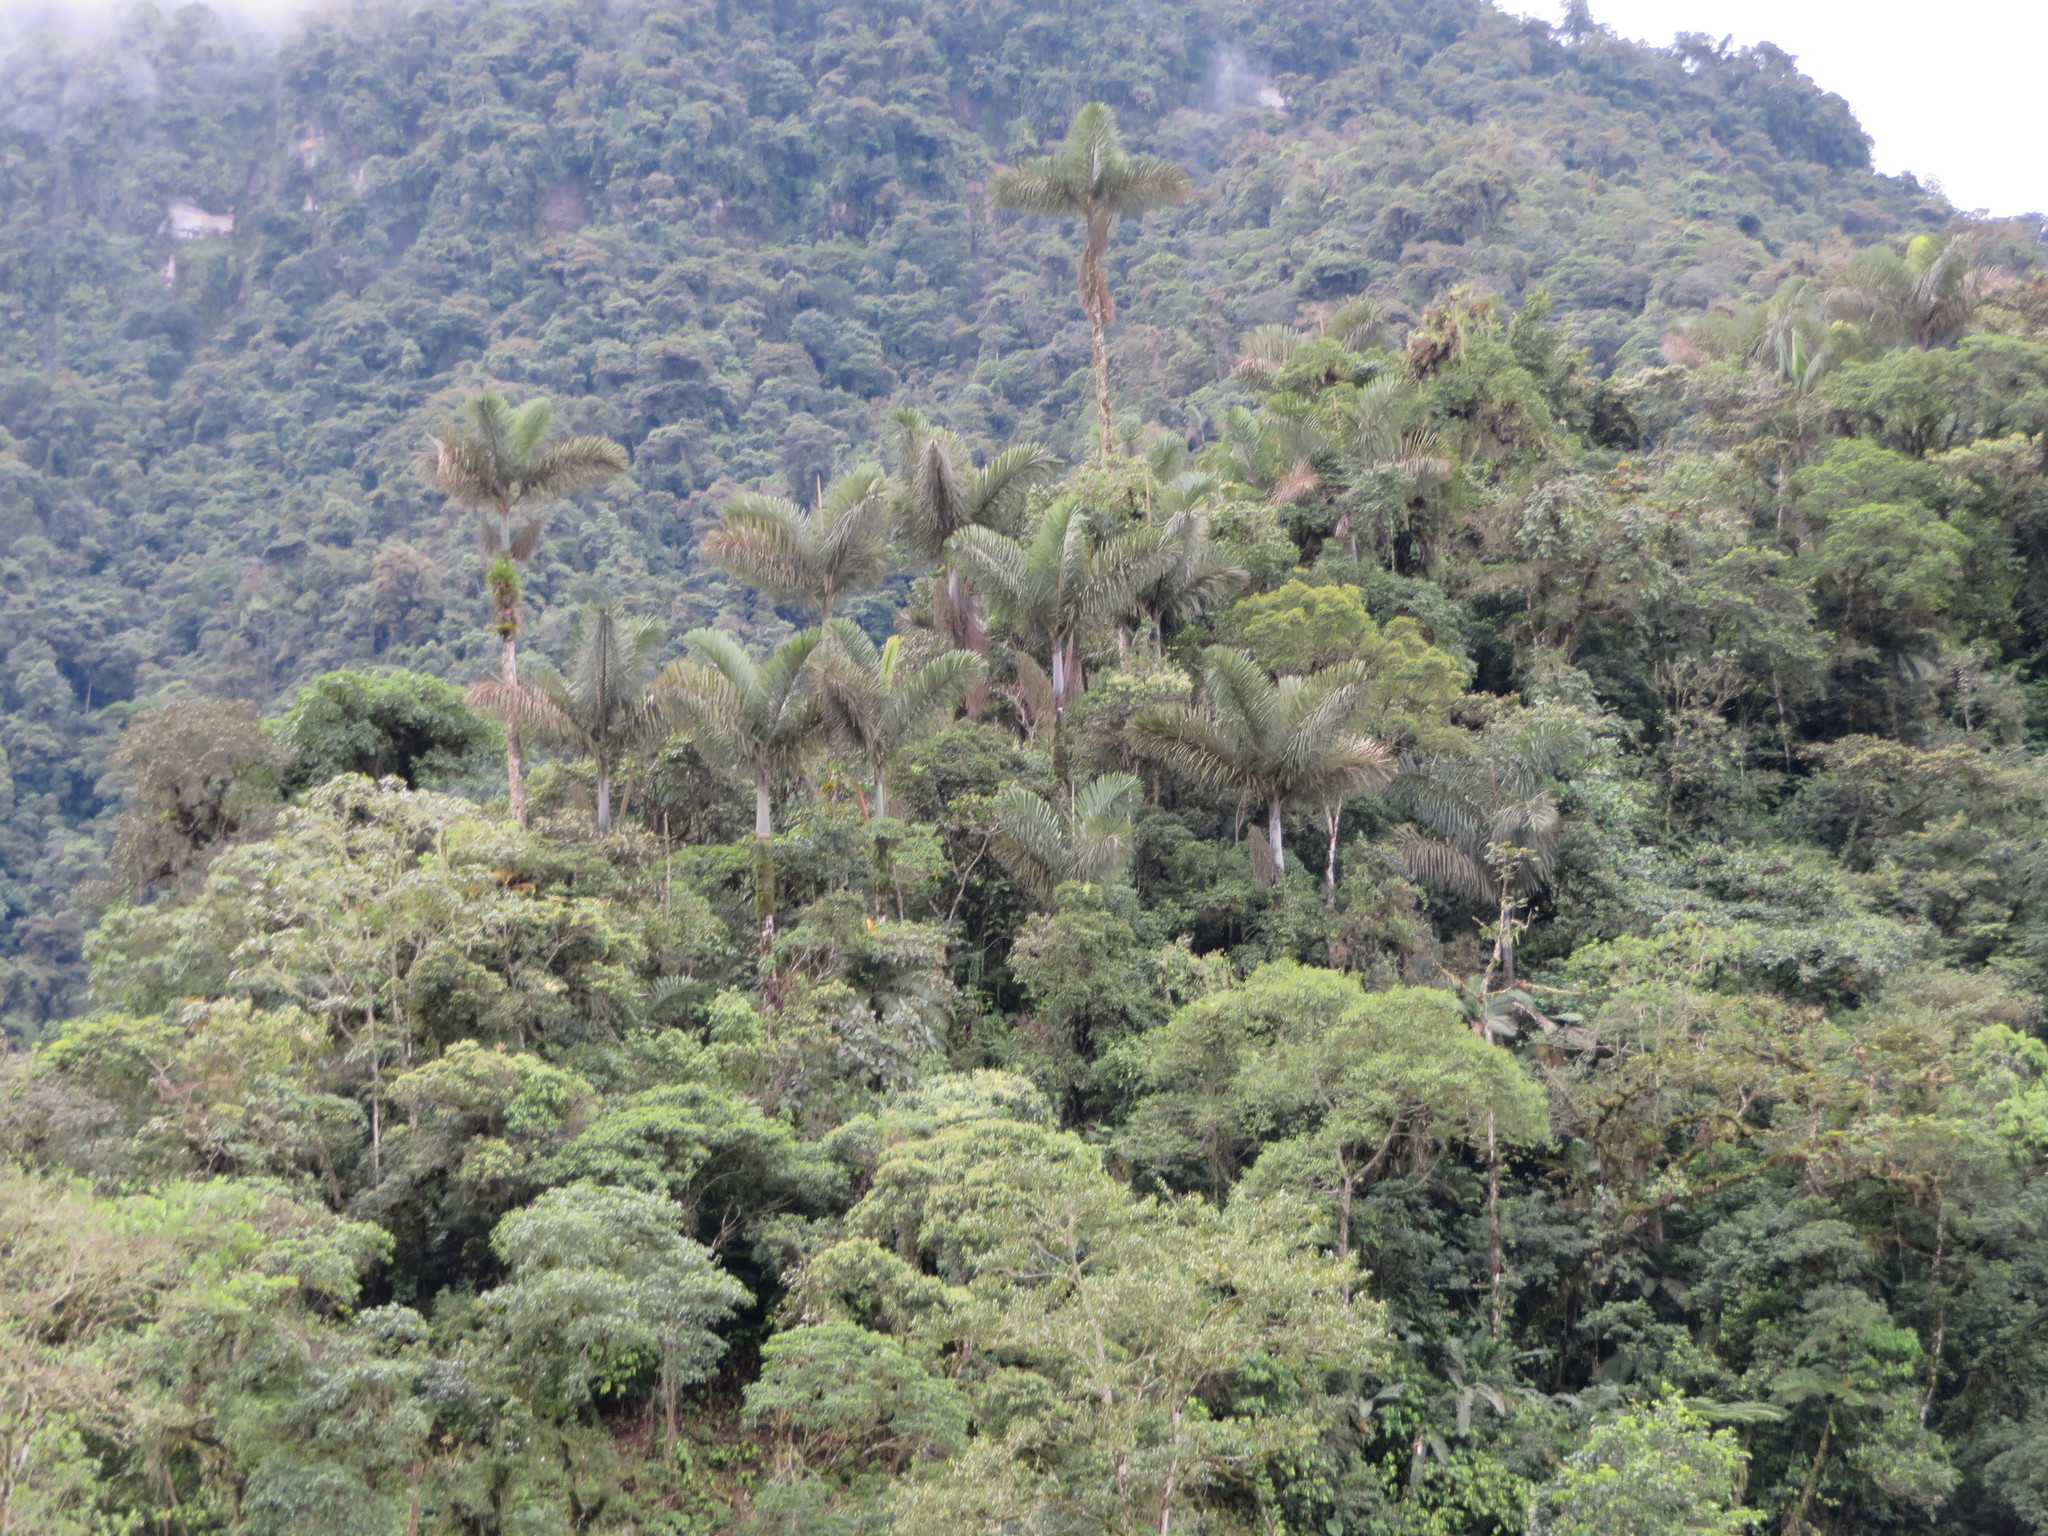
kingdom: Plantae
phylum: Tracheophyta
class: Liliopsida
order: Arecales
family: Arecaceae
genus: Dictyocaryum
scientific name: Dictyocaryum lamarckianum
